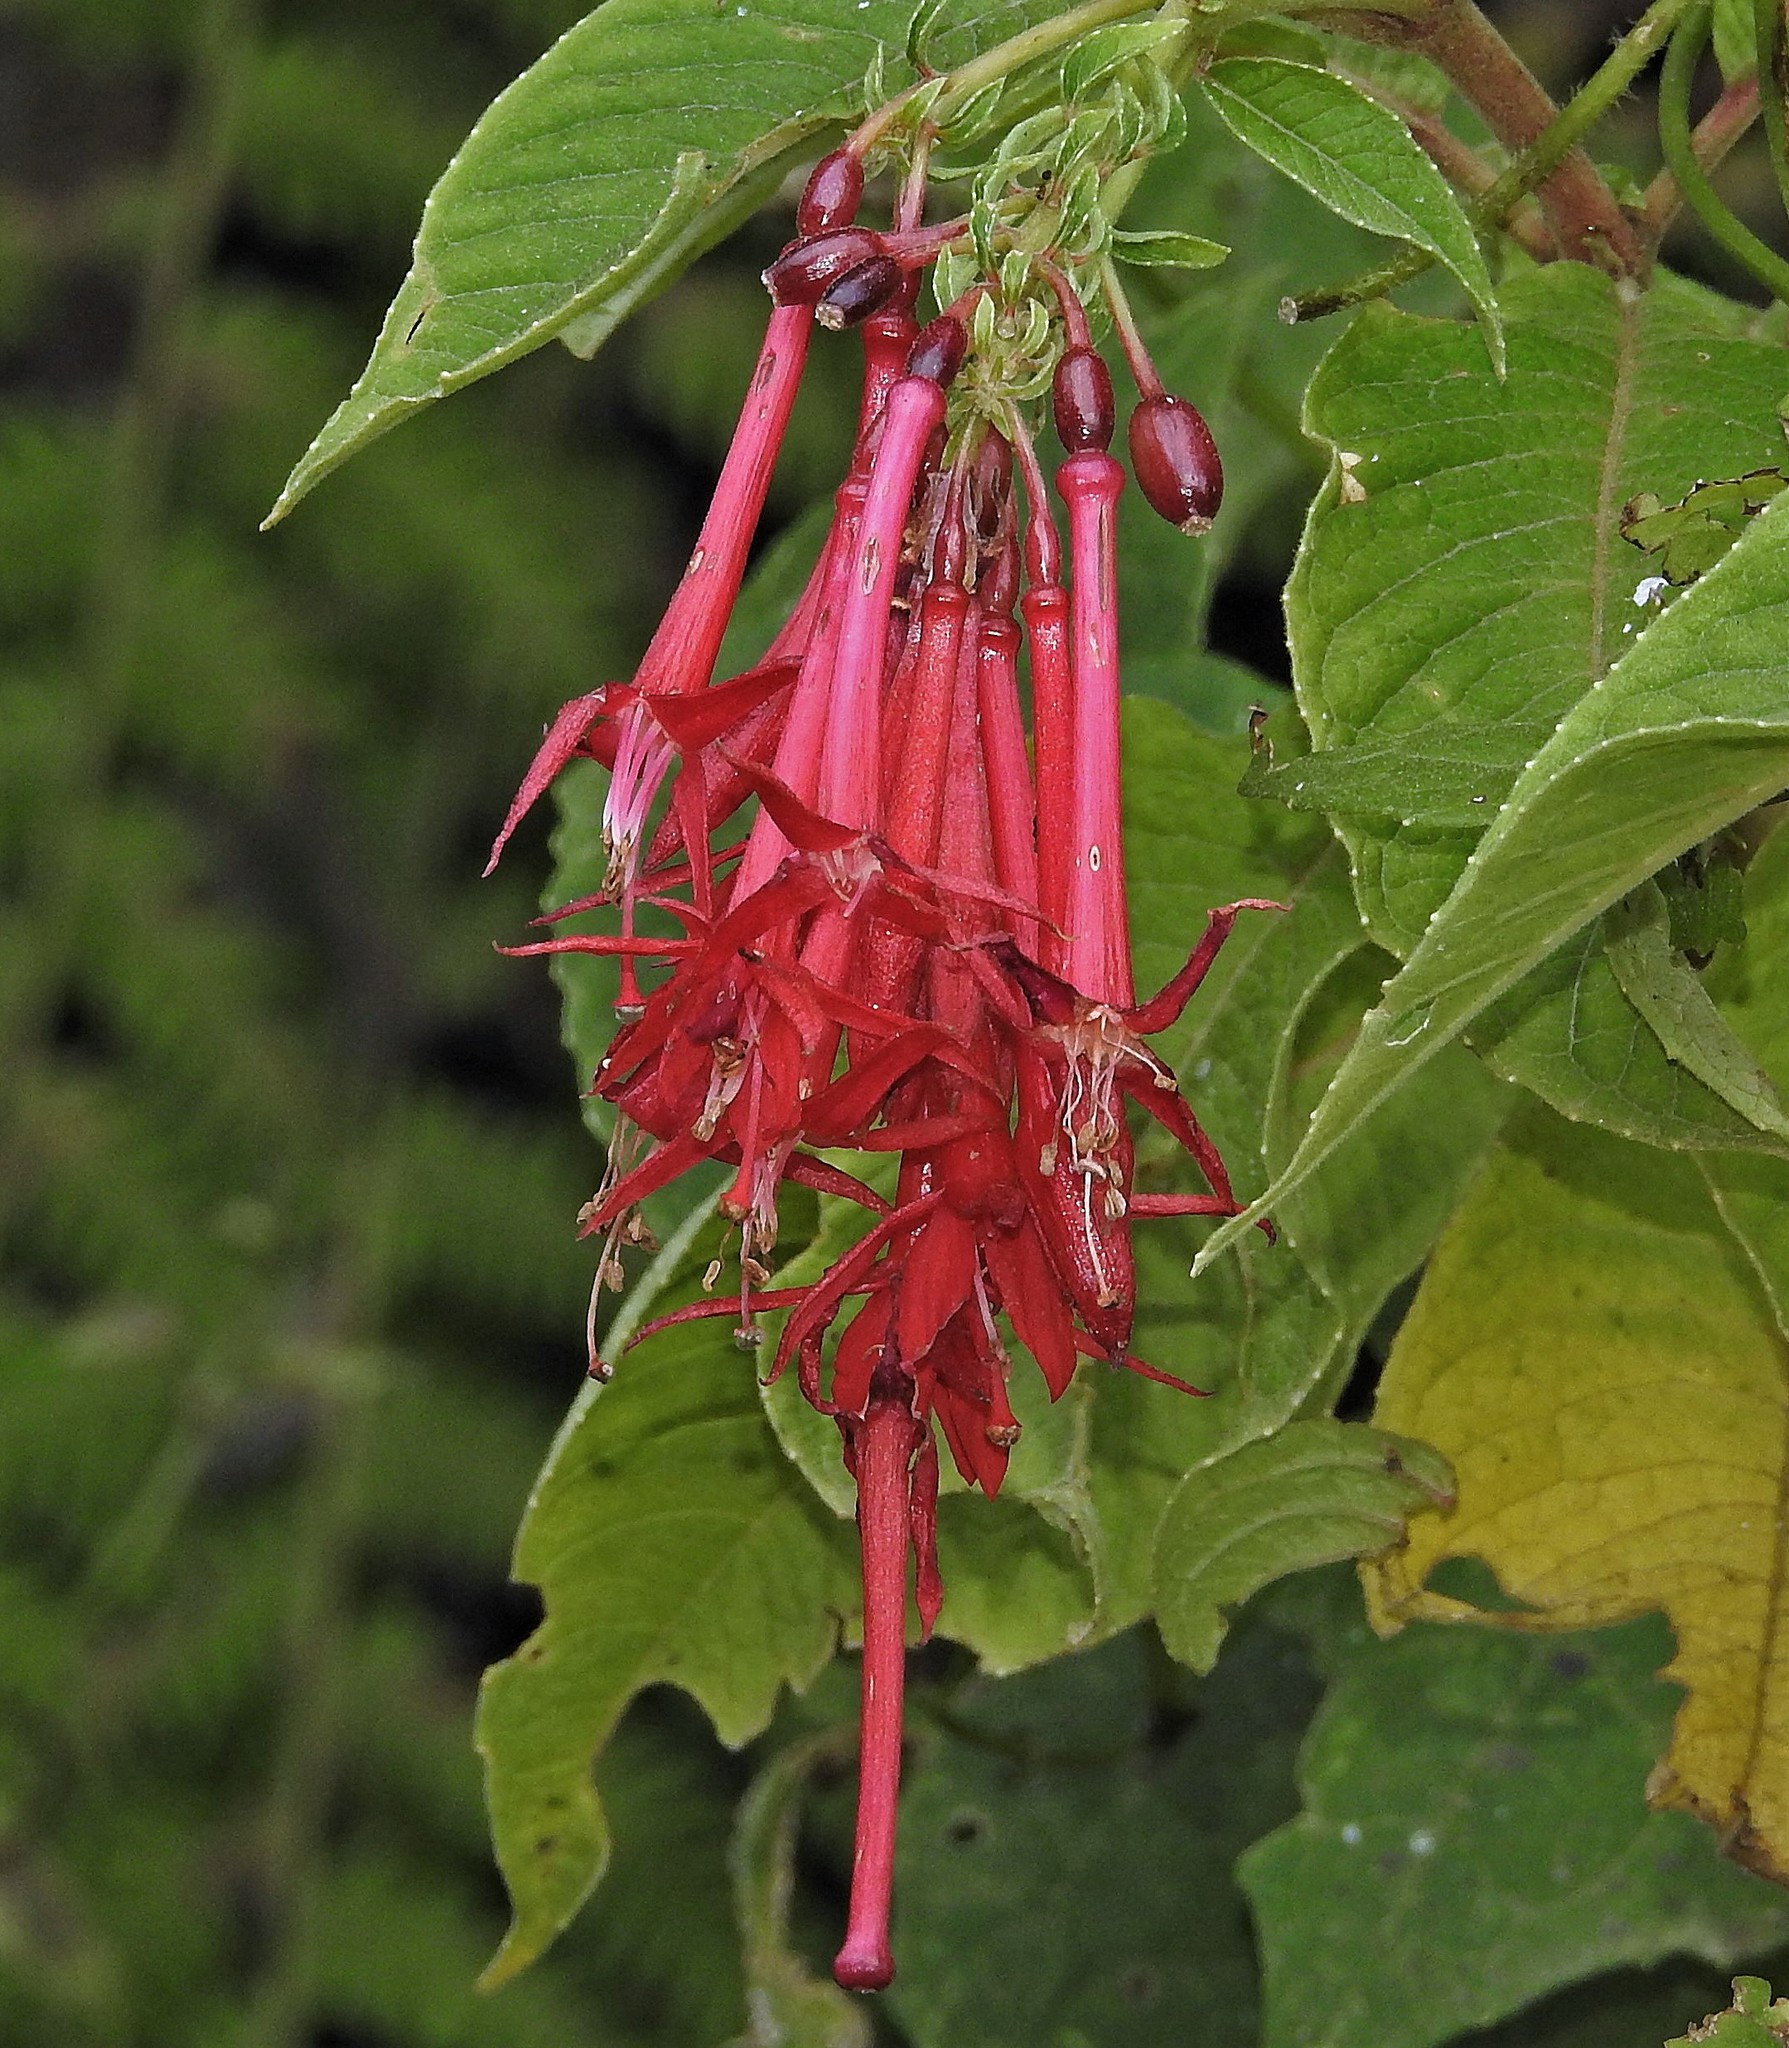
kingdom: Plantae
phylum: Tracheophyta
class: Magnoliopsida
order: Myrtales
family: Onagraceae
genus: Fuchsia
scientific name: Fuchsia boliviana
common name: Bolivian fuchsia
